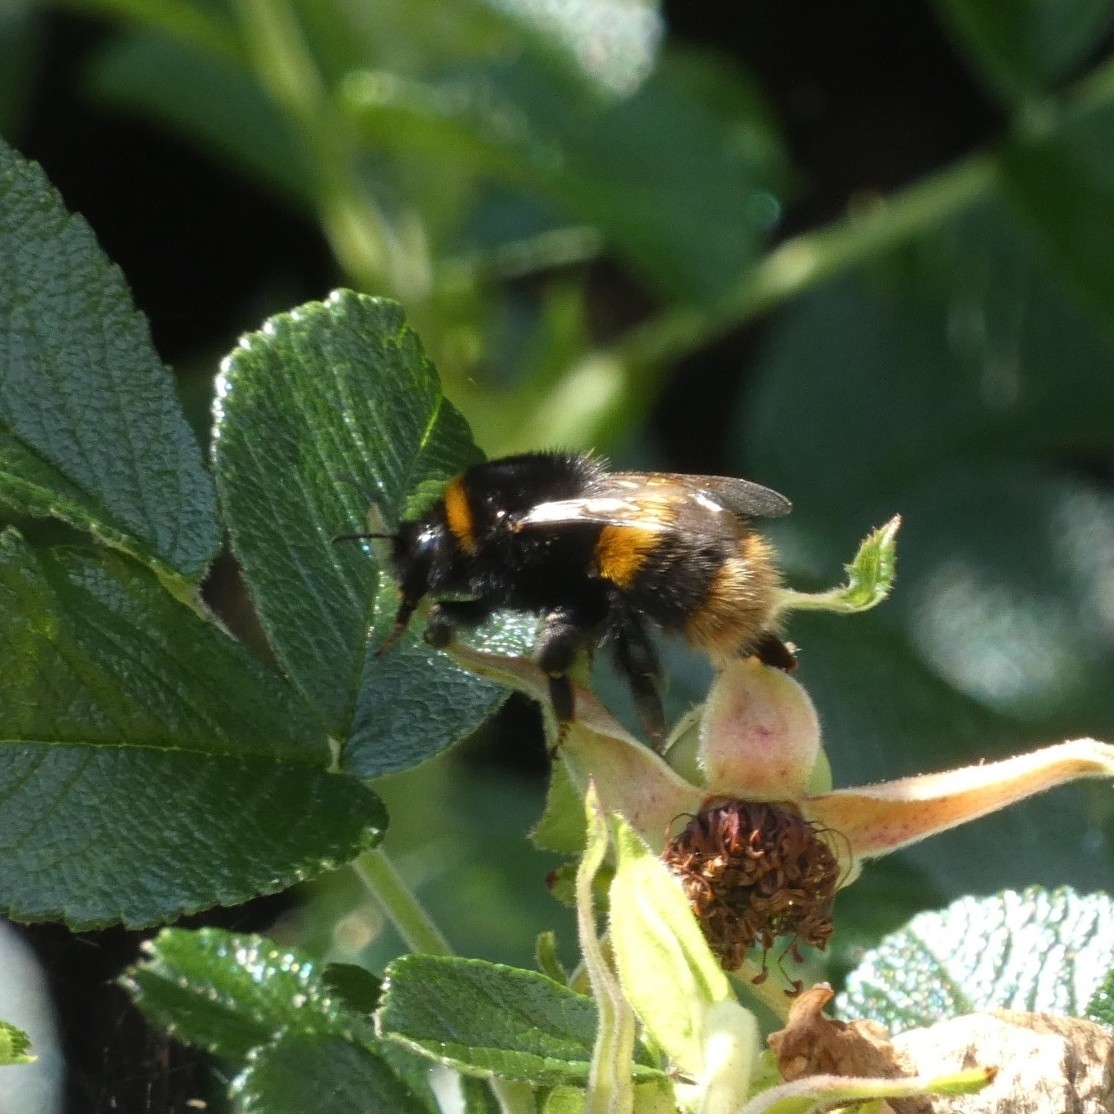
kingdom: Animalia
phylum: Arthropoda
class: Insecta
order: Hymenoptera
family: Apidae
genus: Bombus
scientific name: Bombus terrestris
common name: Buff-tailed bumblebee
